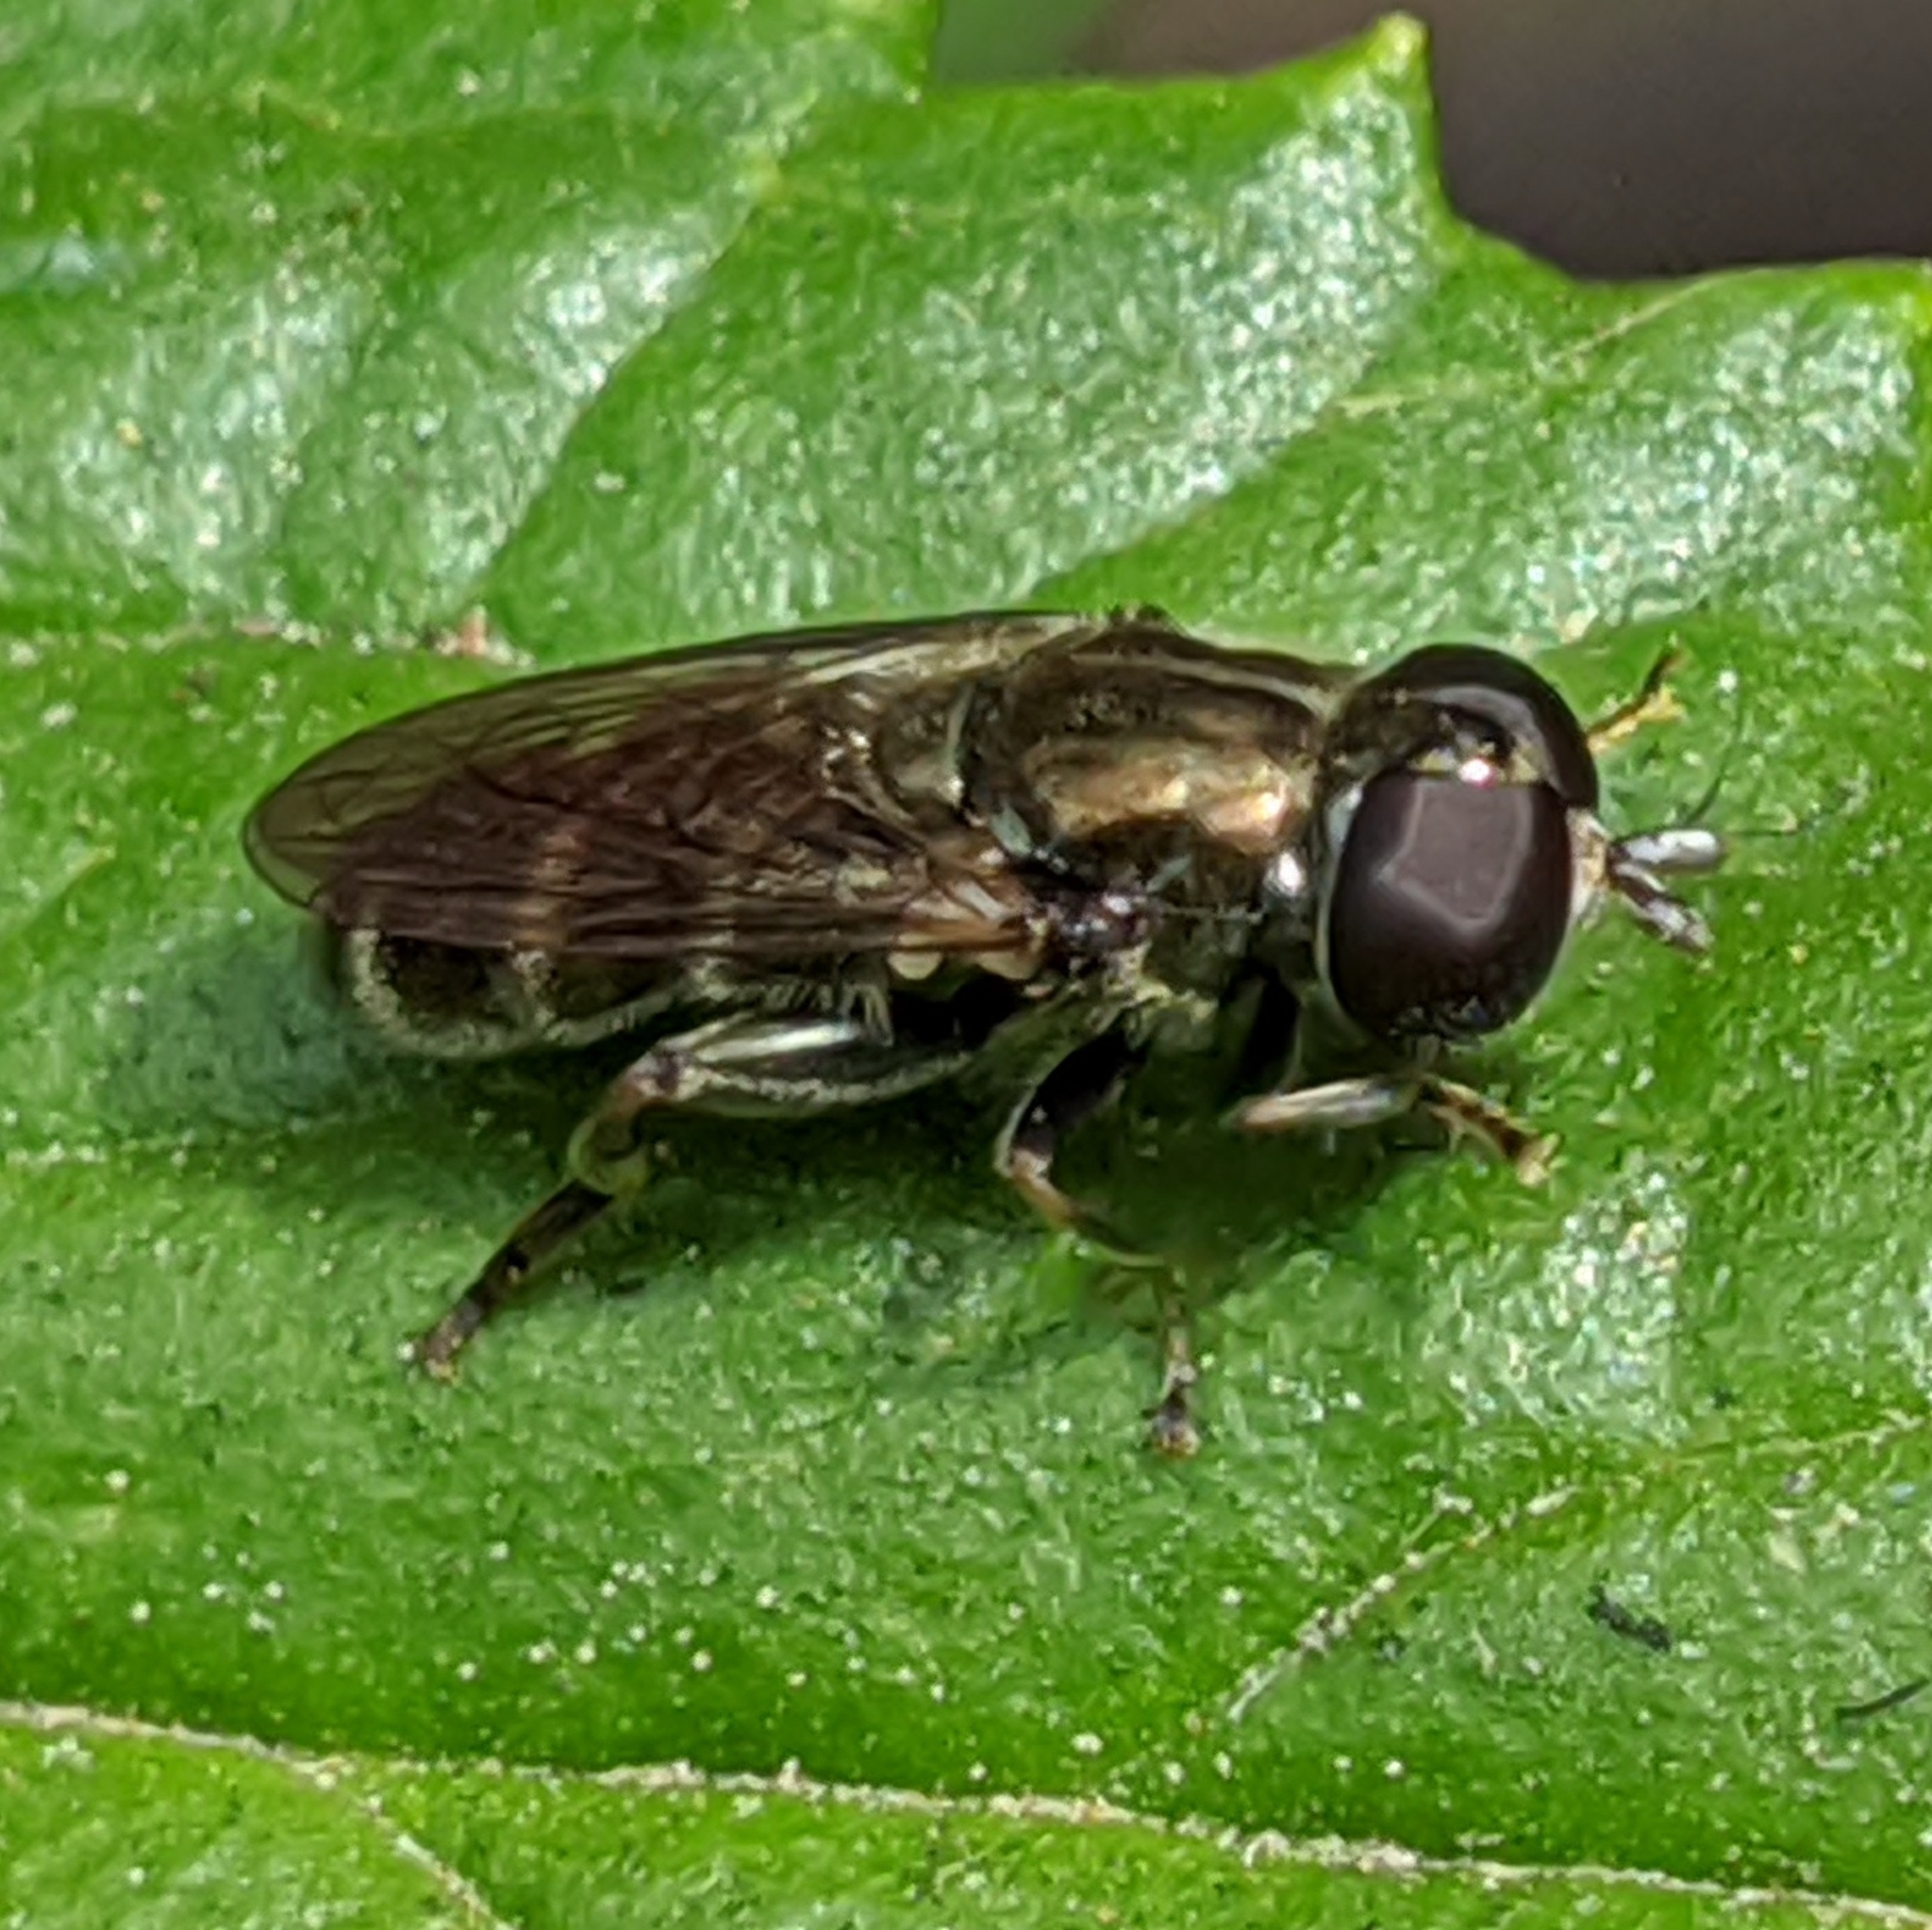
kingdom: Animalia
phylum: Arthropoda
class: Insecta
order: Diptera
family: Syrphidae
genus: Eumerus
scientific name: Eumerus
